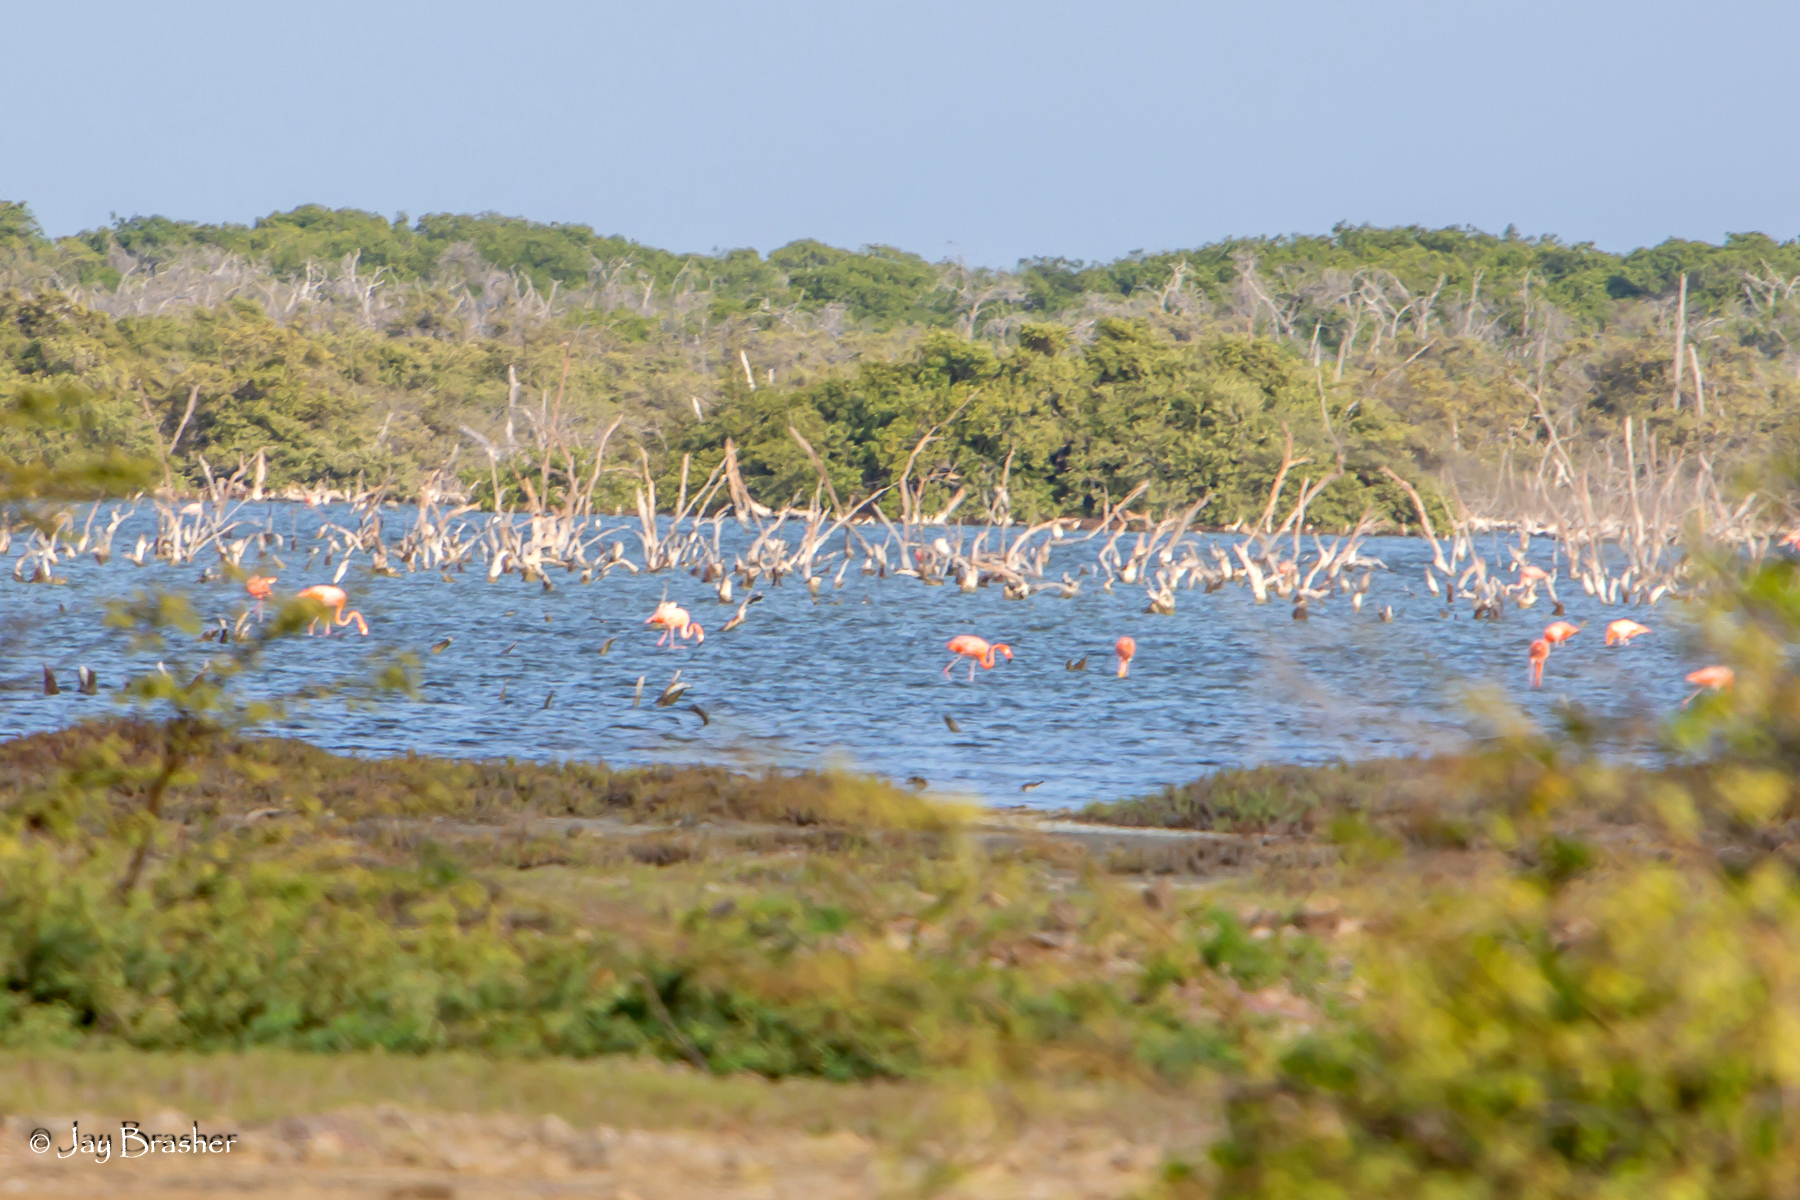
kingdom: Animalia
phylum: Chordata
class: Aves
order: Phoenicopteriformes
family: Phoenicopteridae
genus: Phoenicopterus
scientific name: Phoenicopterus ruber
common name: American flamingo
